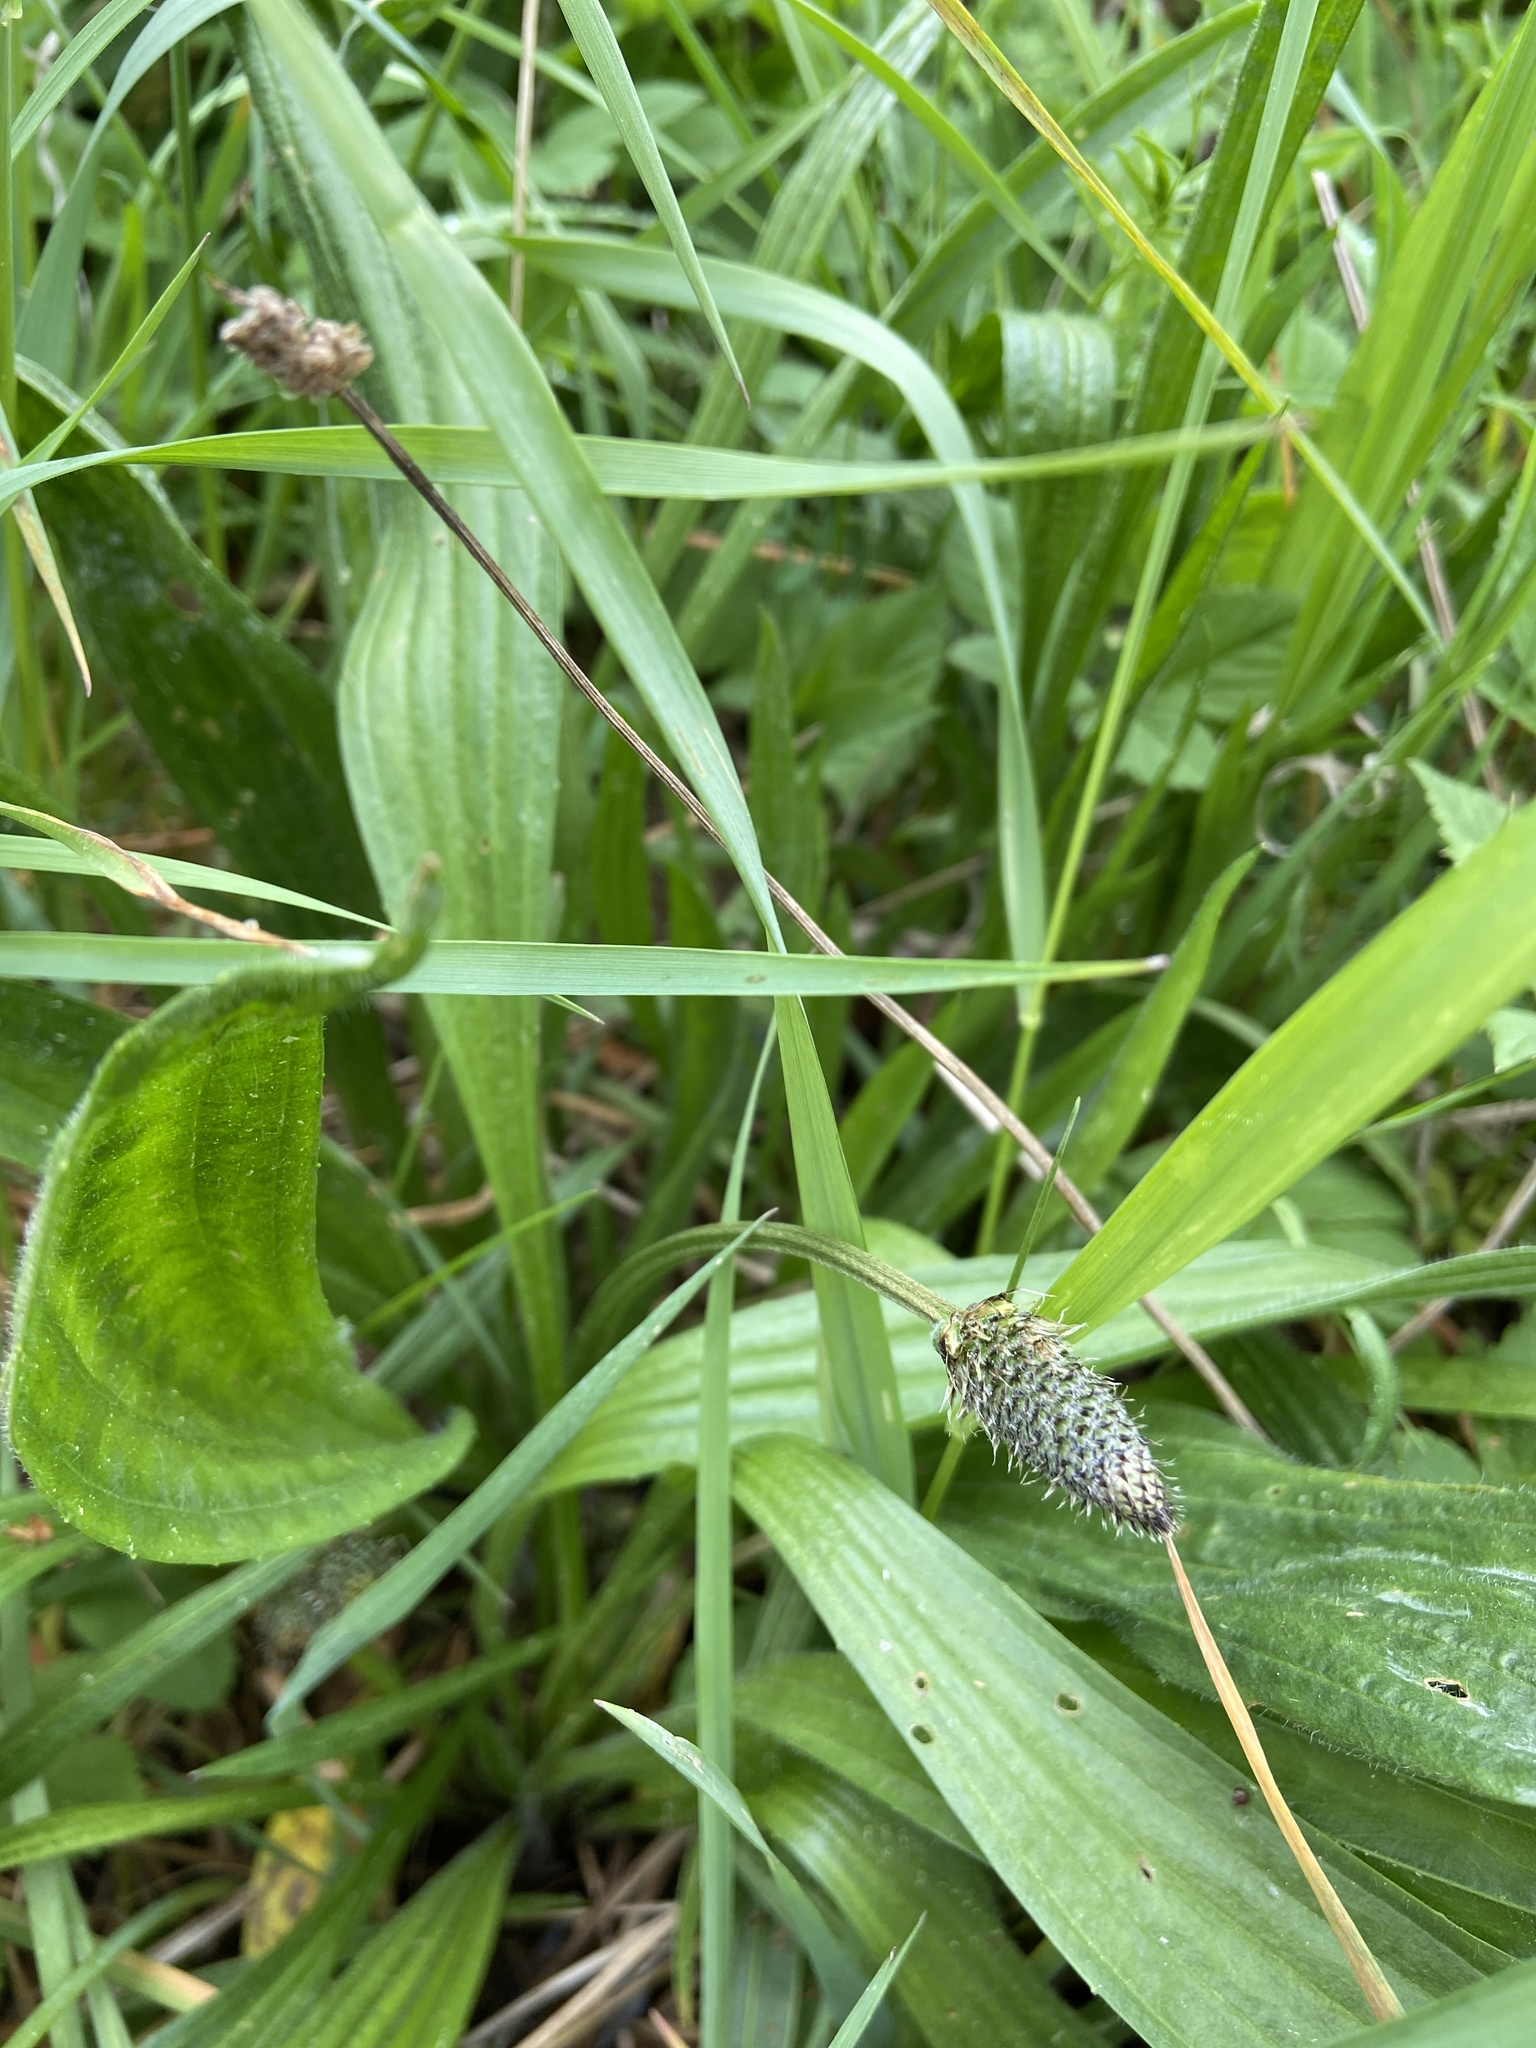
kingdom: Plantae
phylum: Tracheophyta
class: Magnoliopsida
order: Lamiales
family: Plantaginaceae
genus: Plantago
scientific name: Plantago lanceolata
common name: Ribwort plantain
